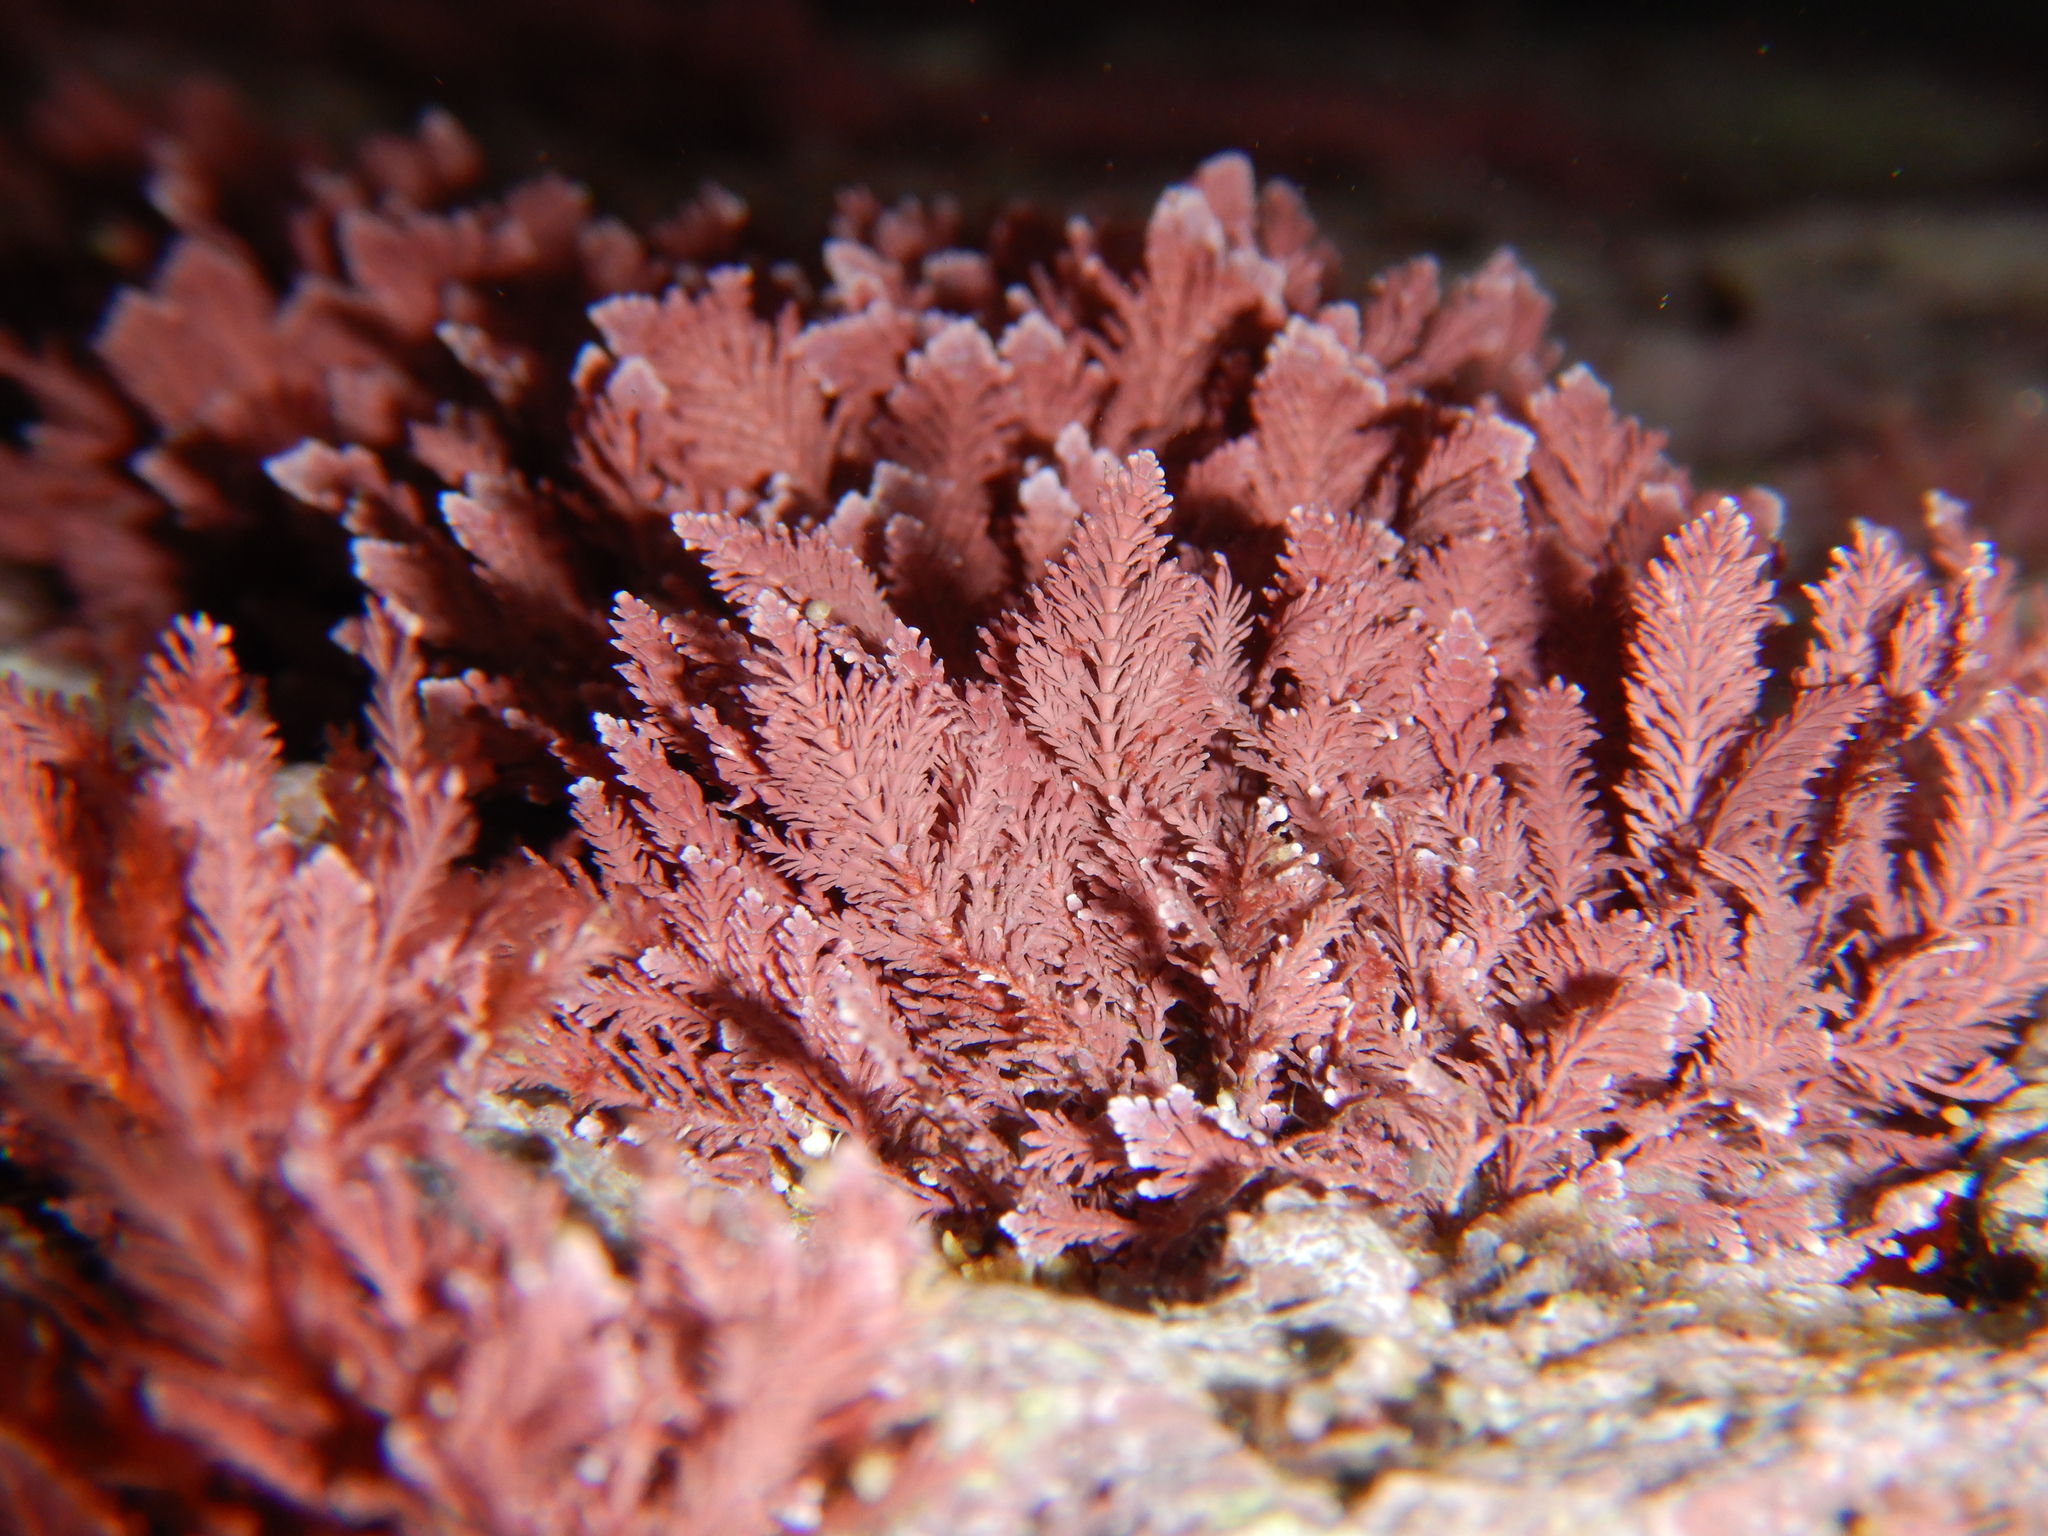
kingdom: Plantae
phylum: Rhodophyta
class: Florideophyceae
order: Corallinales
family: Corallinaceae
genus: Corallina
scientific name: Corallina
